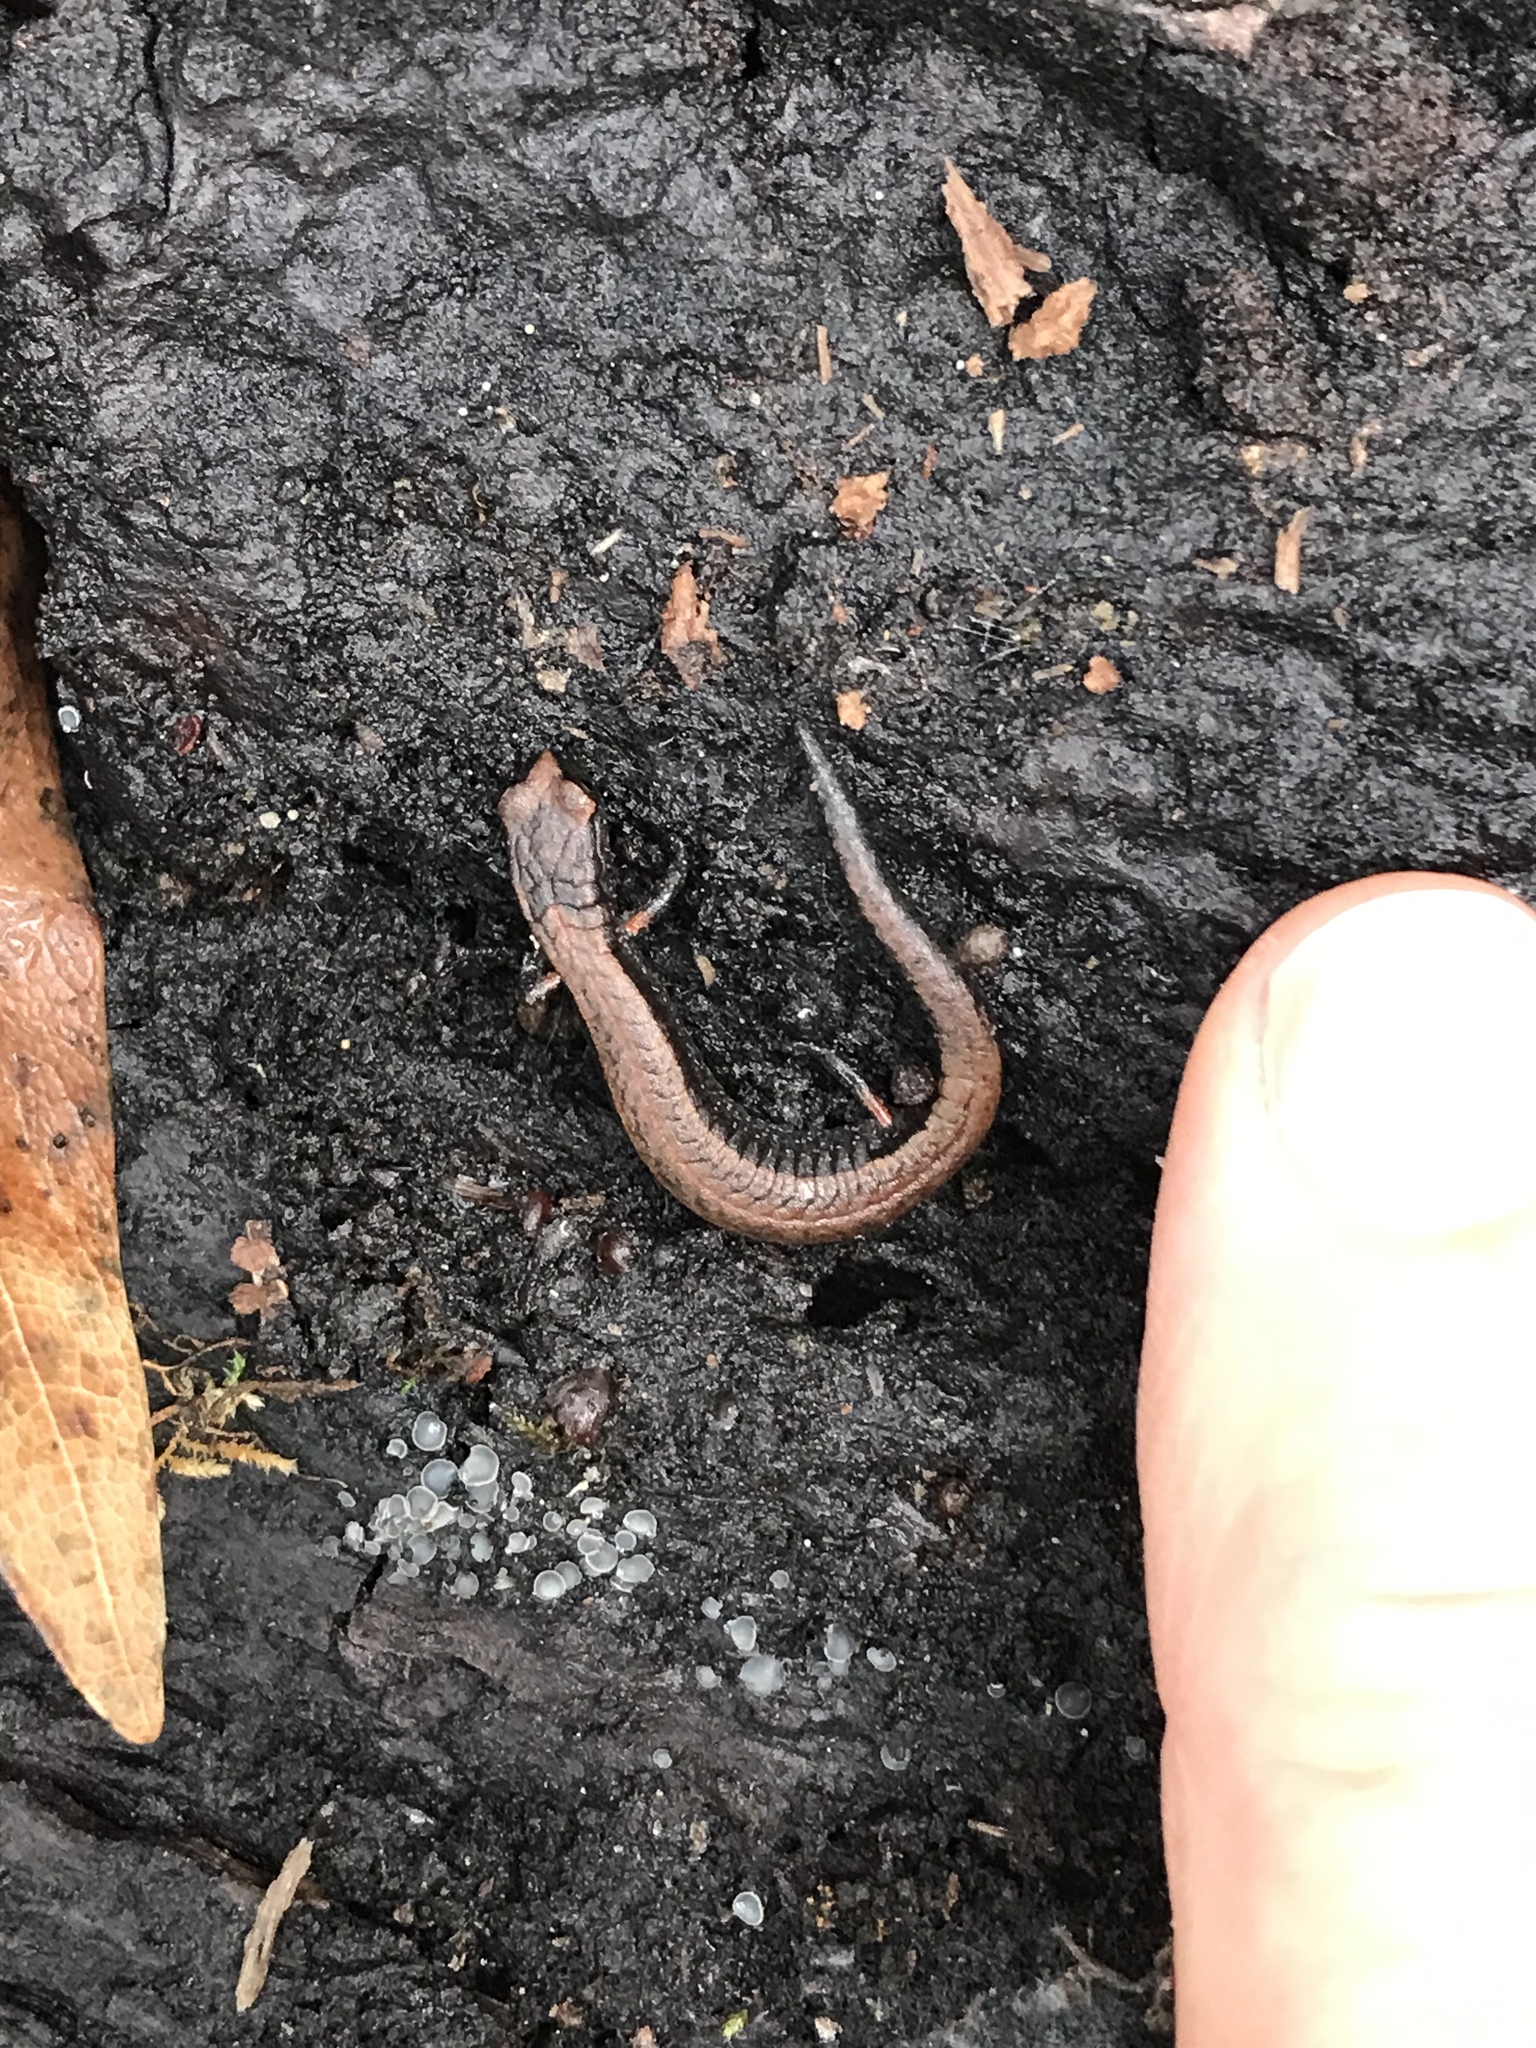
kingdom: Animalia
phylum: Chordata
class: Amphibia
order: Caudata
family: Plethodontidae
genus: Batrachoseps
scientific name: Batrachoseps attenuatus
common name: California slender salamander
